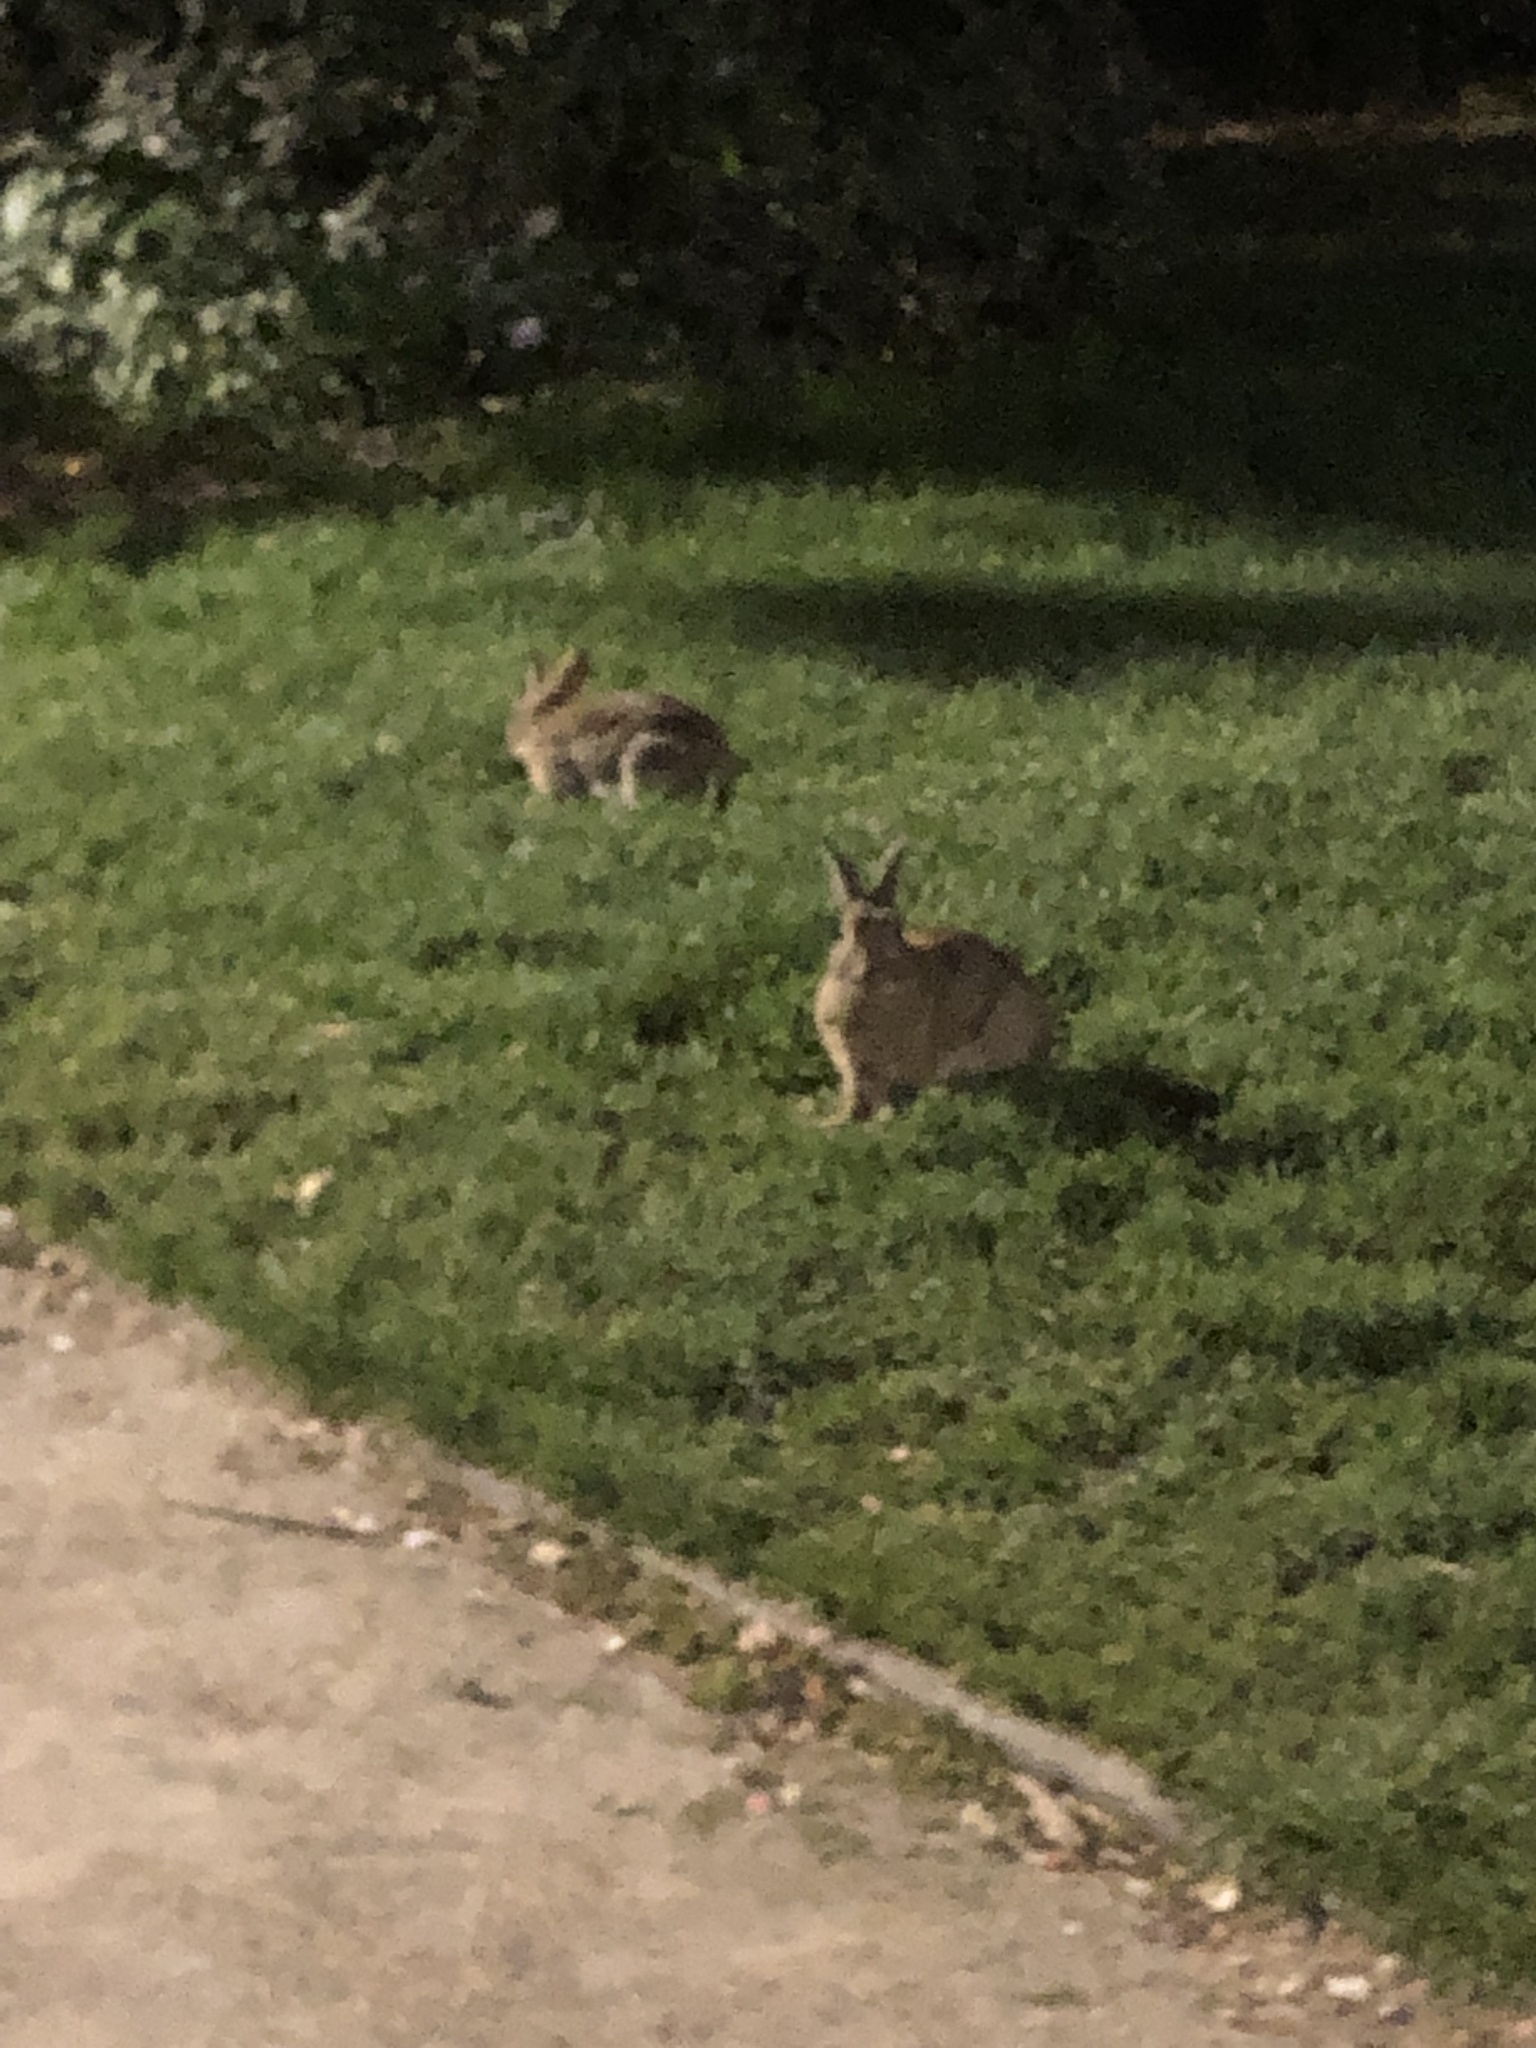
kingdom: Animalia
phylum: Chordata
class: Mammalia
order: Lagomorpha
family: Leporidae
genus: Oryctolagus
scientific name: Oryctolagus cuniculus
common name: European rabbit
